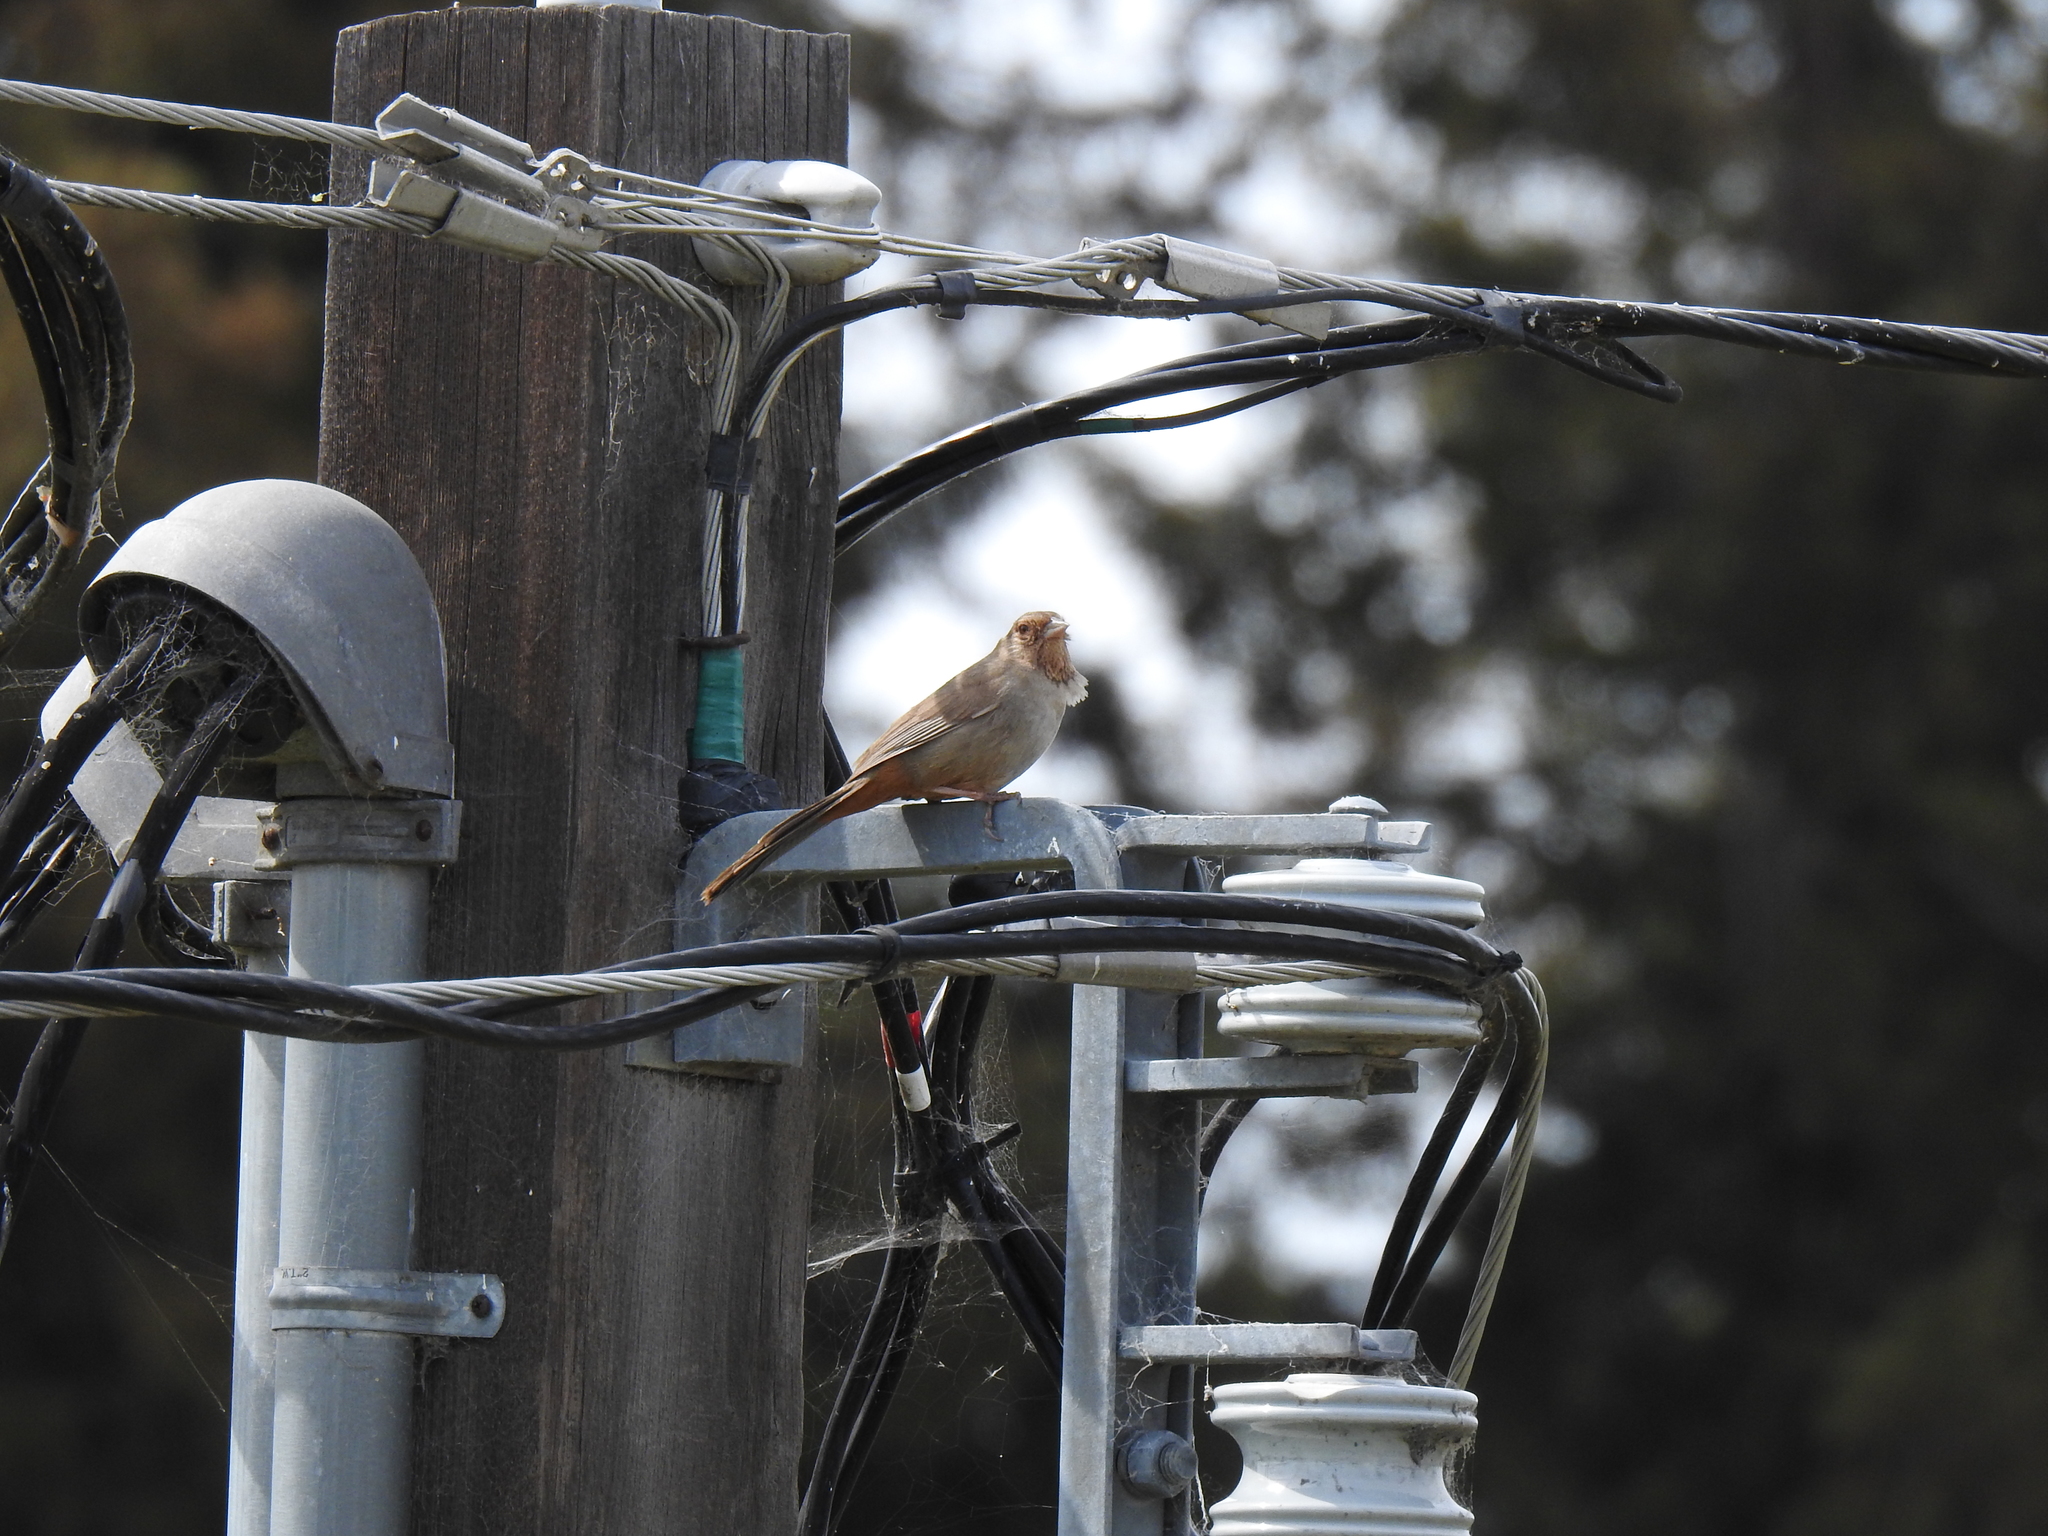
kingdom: Animalia
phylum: Chordata
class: Aves
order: Passeriformes
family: Passerellidae
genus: Melozone
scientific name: Melozone crissalis
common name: California towhee
